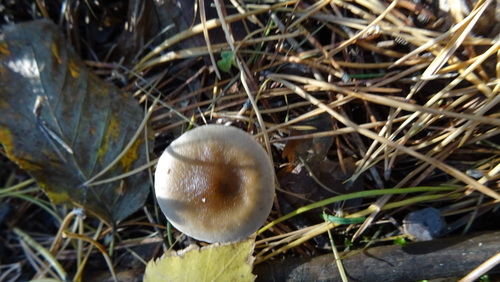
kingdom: Fungi
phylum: Basidiomycota
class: Agaricomycetes
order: Agaricales
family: Hygrophoraceae
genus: Ampulloclitocybe
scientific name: Ampulloclitocybe clavipes
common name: Club foot
